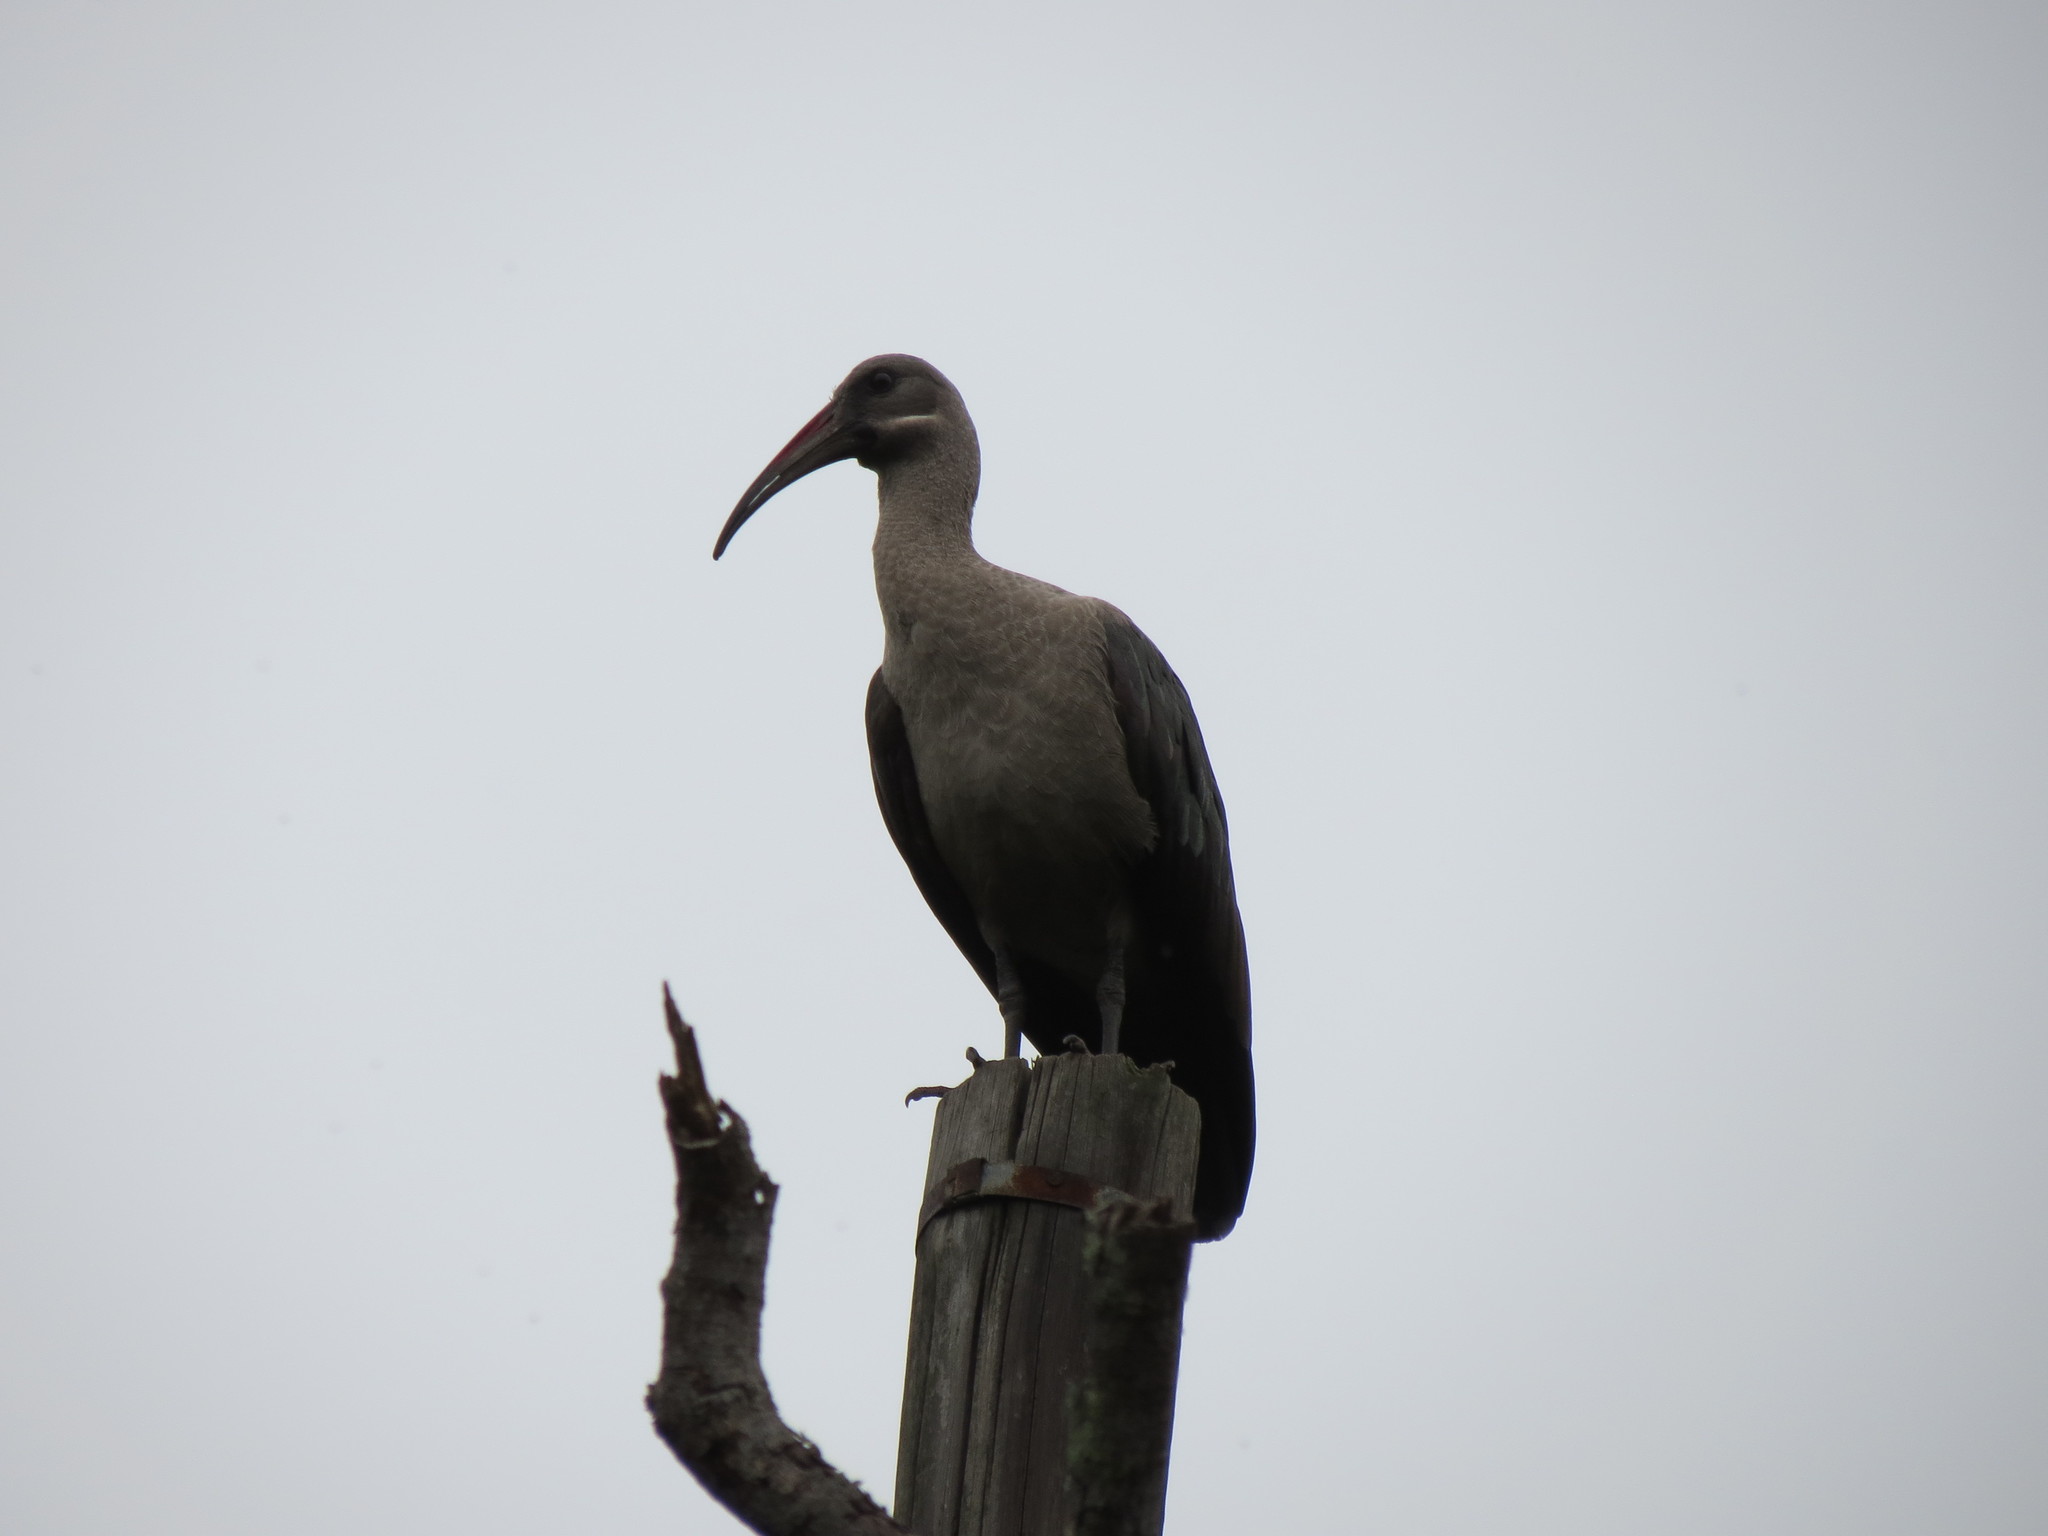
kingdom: Animalia
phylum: Chordata
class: Aves
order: Pelecaniformes
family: Threskiornithidae
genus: Bostrychia
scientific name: Bostrychia hagedash
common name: Hadada ibis
